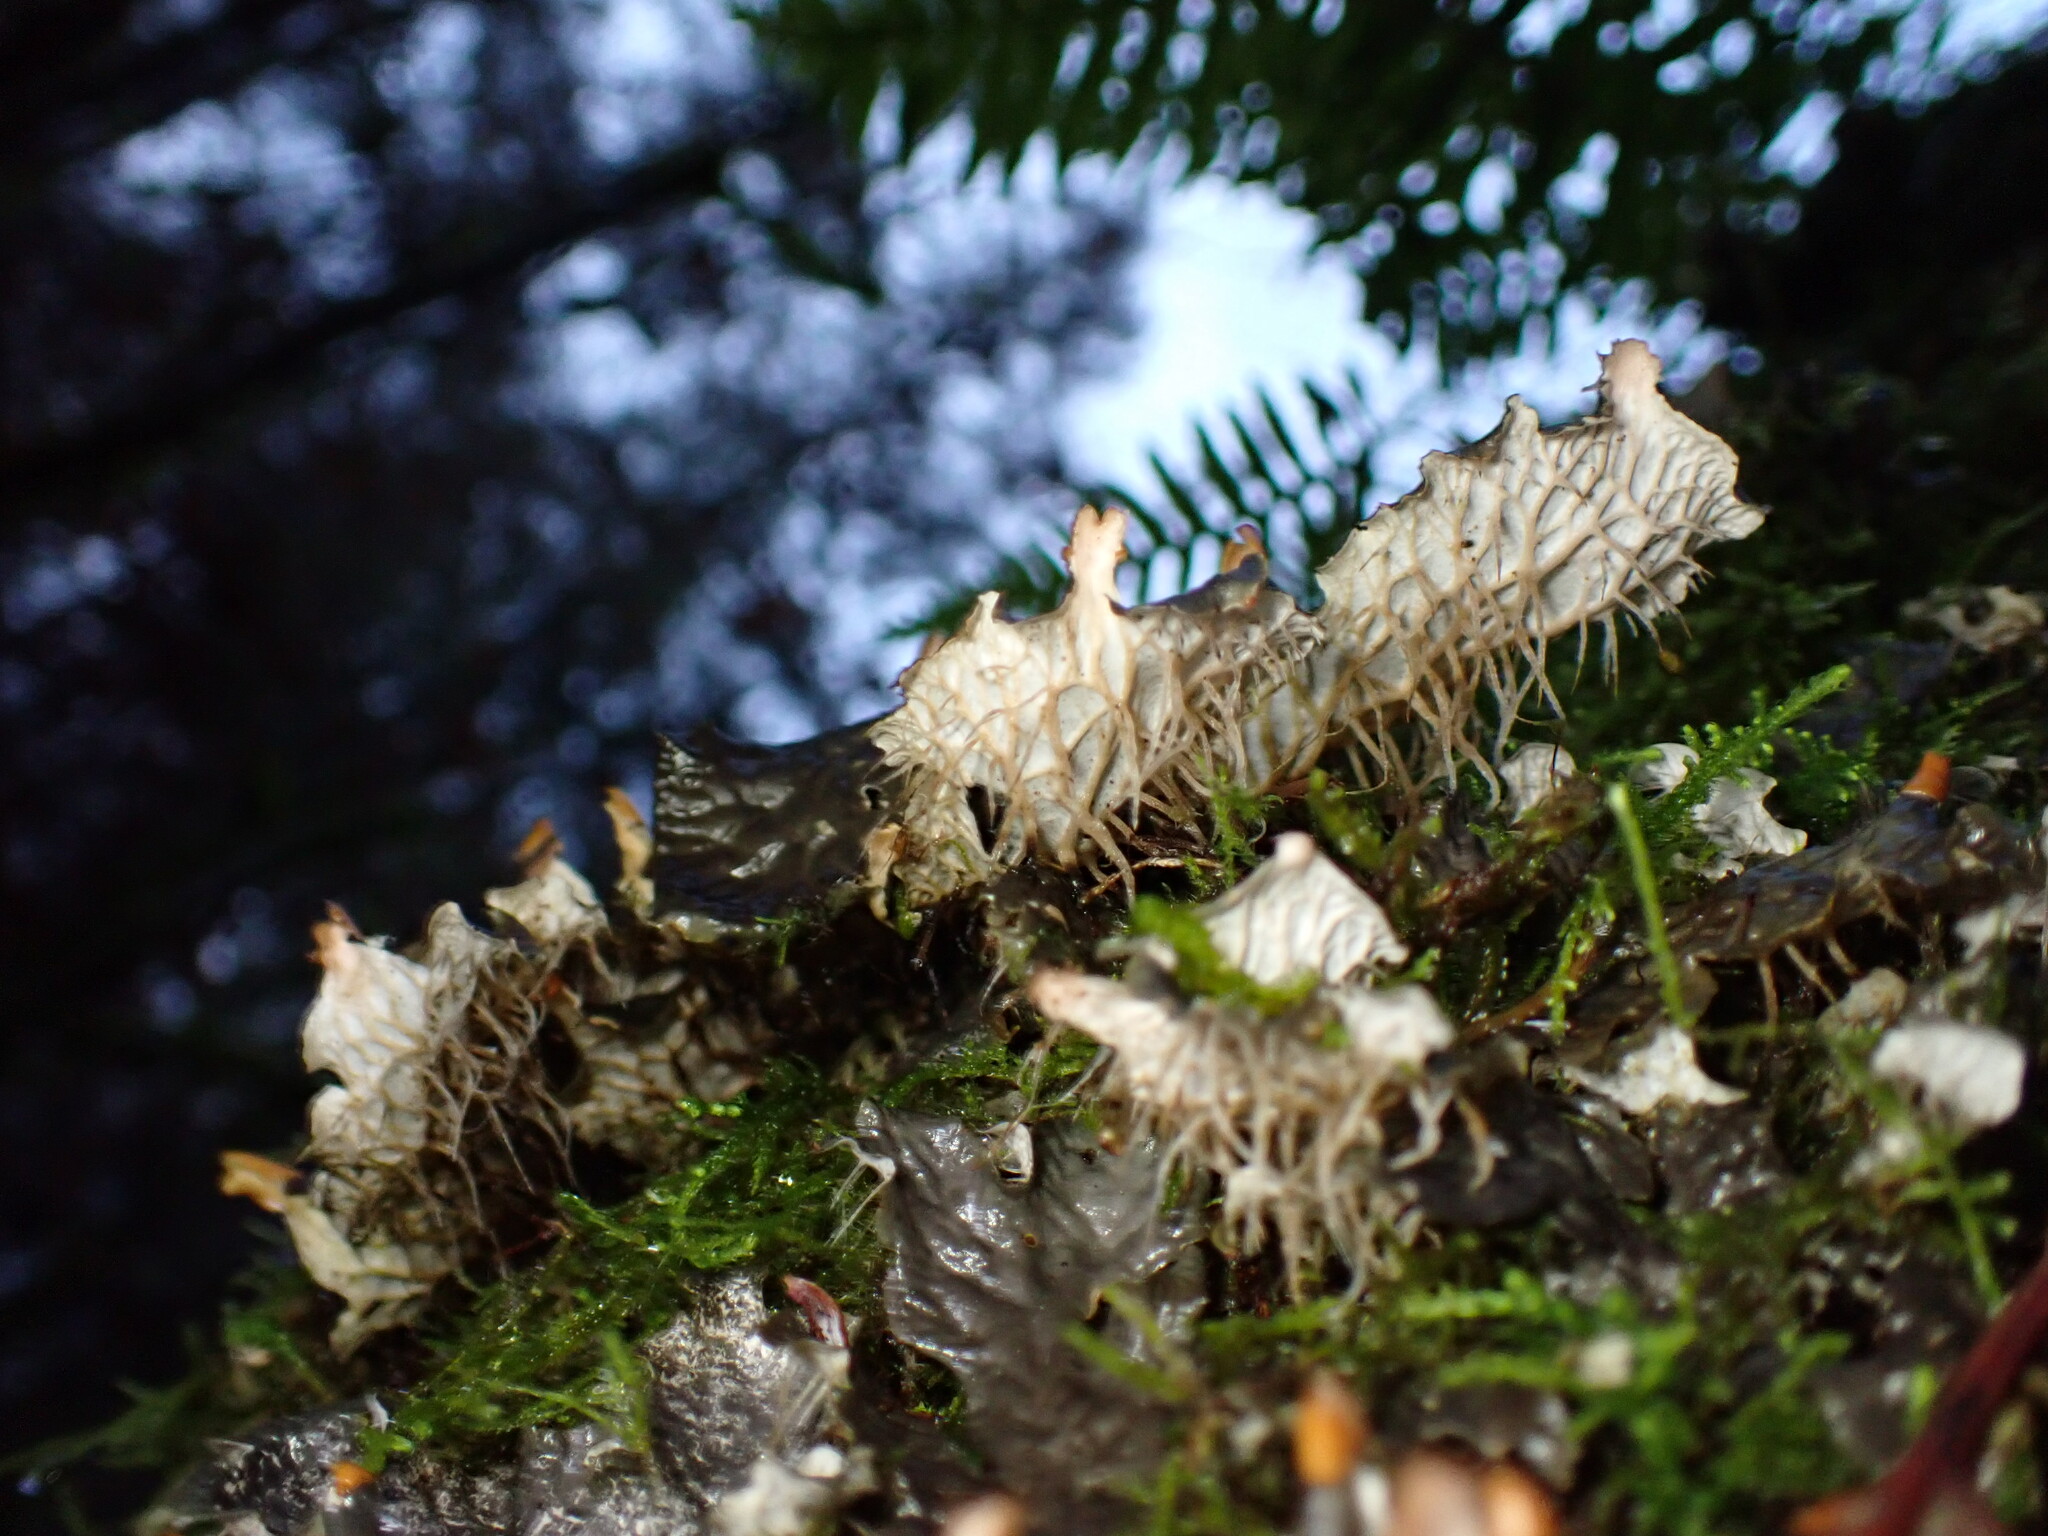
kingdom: Fungi
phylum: Ascomycota
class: Lecanoromycetes
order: Peltigerales
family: Peltigeraceae
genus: Peltigera
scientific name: Peltigera membranacea
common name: Membranous pelt lichen
